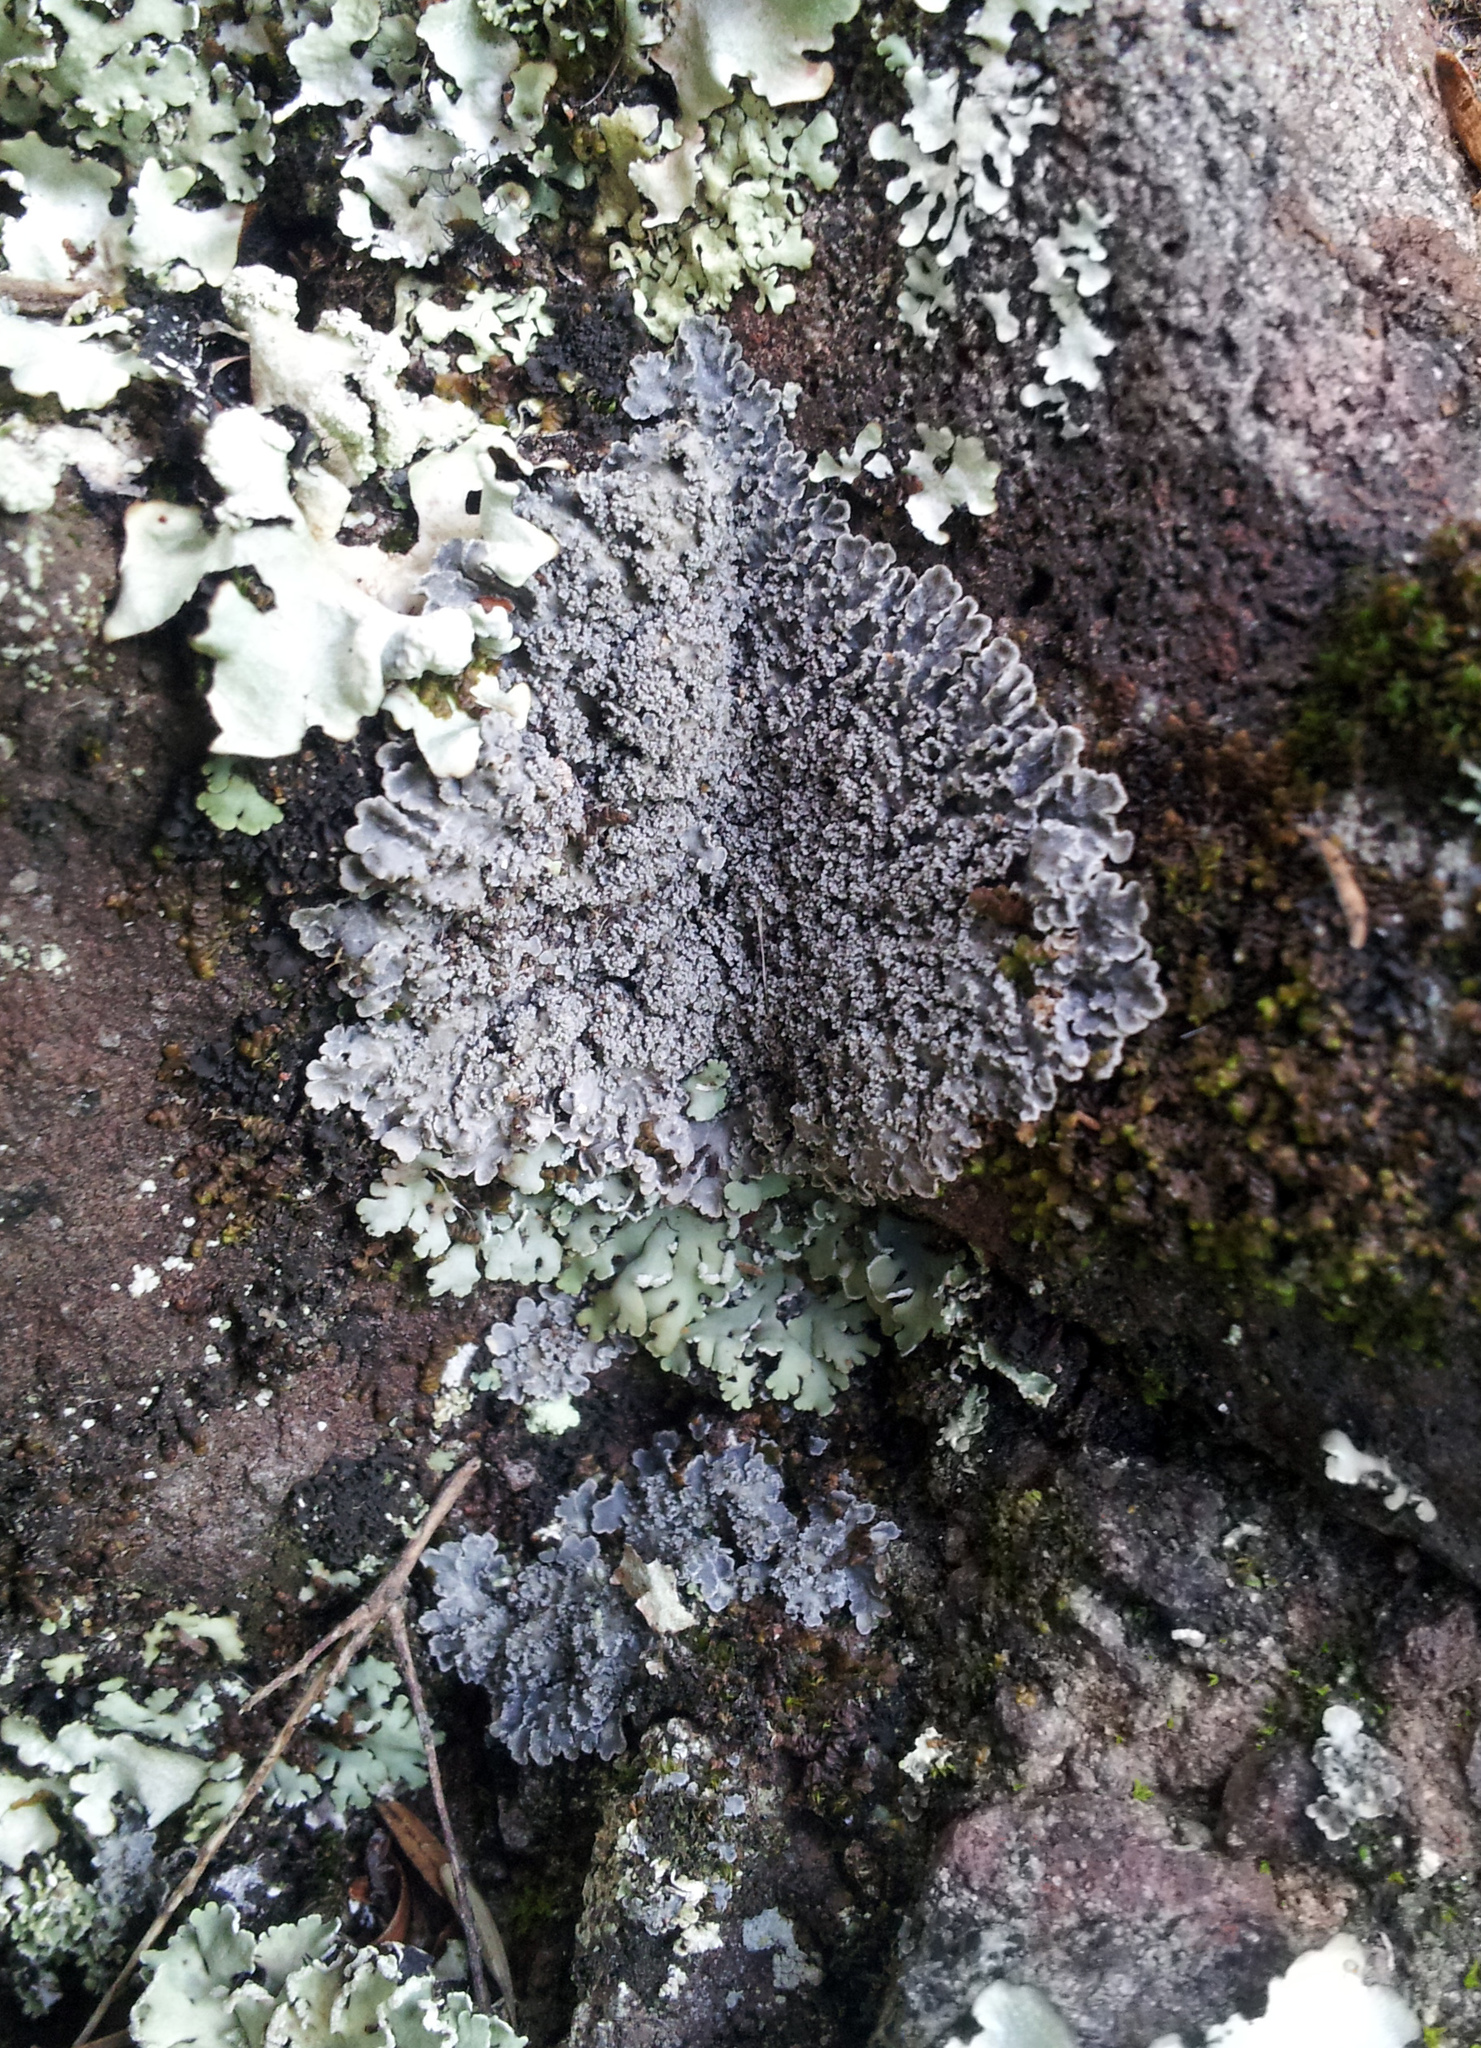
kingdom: Fungi
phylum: Ascomycota
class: Lecanoromycetes
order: Peltigerales
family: Pannariaceae
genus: Pannaria
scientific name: Pannaria elixii
